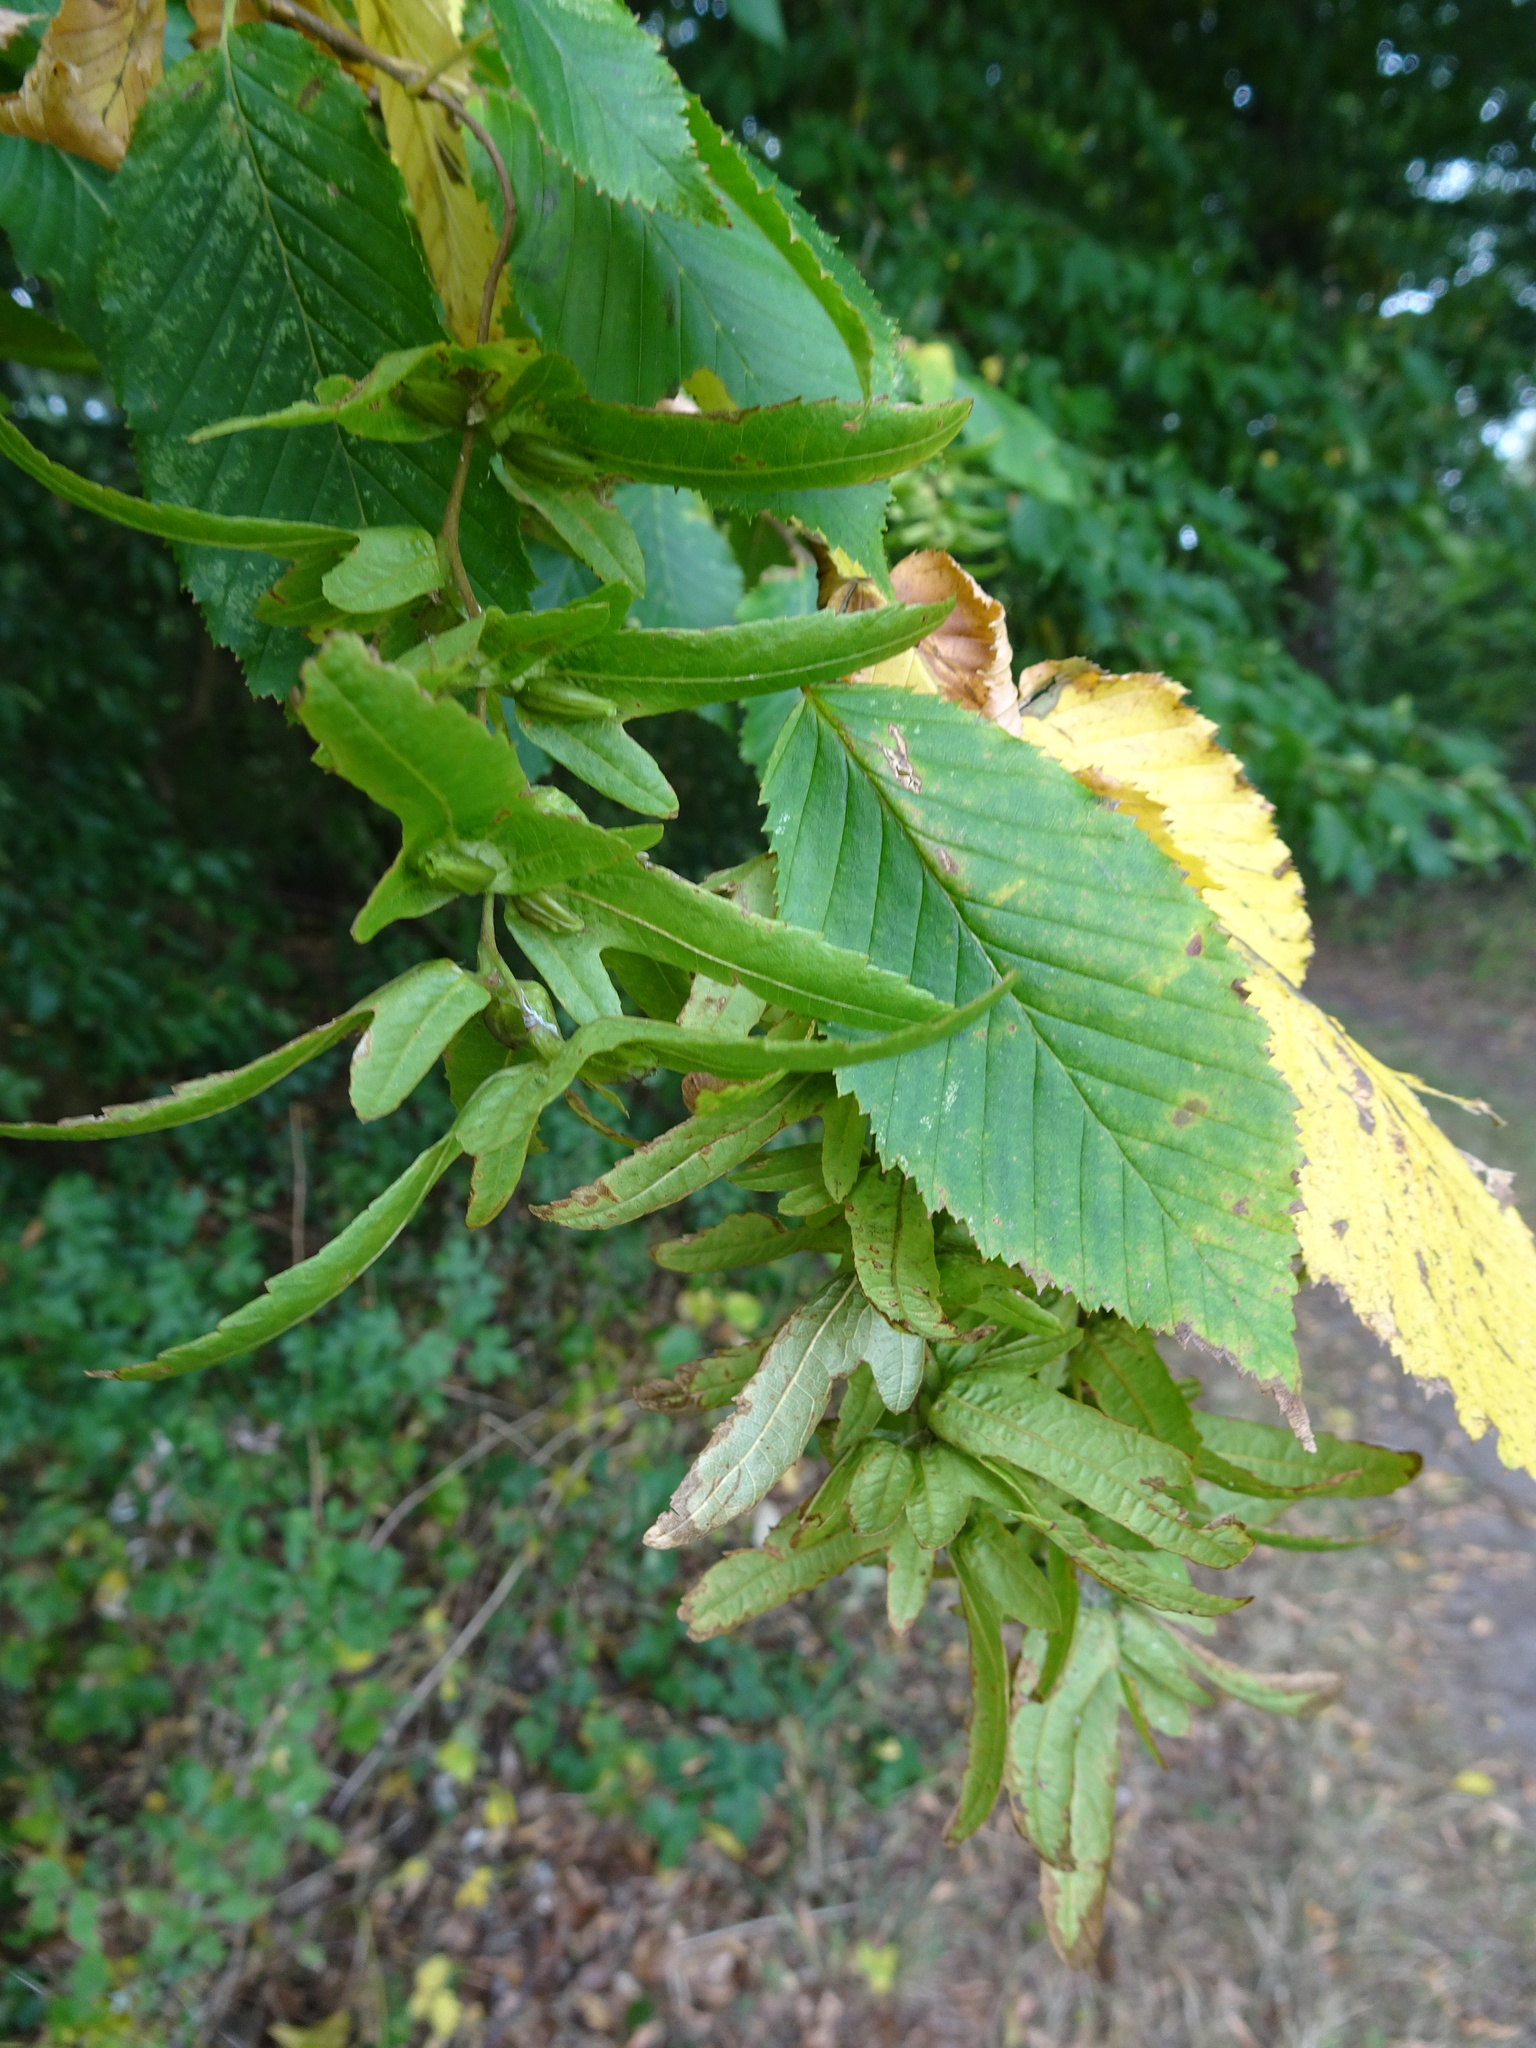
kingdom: Plantae
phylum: Tracheophyta
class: Magnoliopsida
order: Fagales
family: Betulaceae
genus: Carpinus
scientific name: Carpinus betulus
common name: Hornbeam
